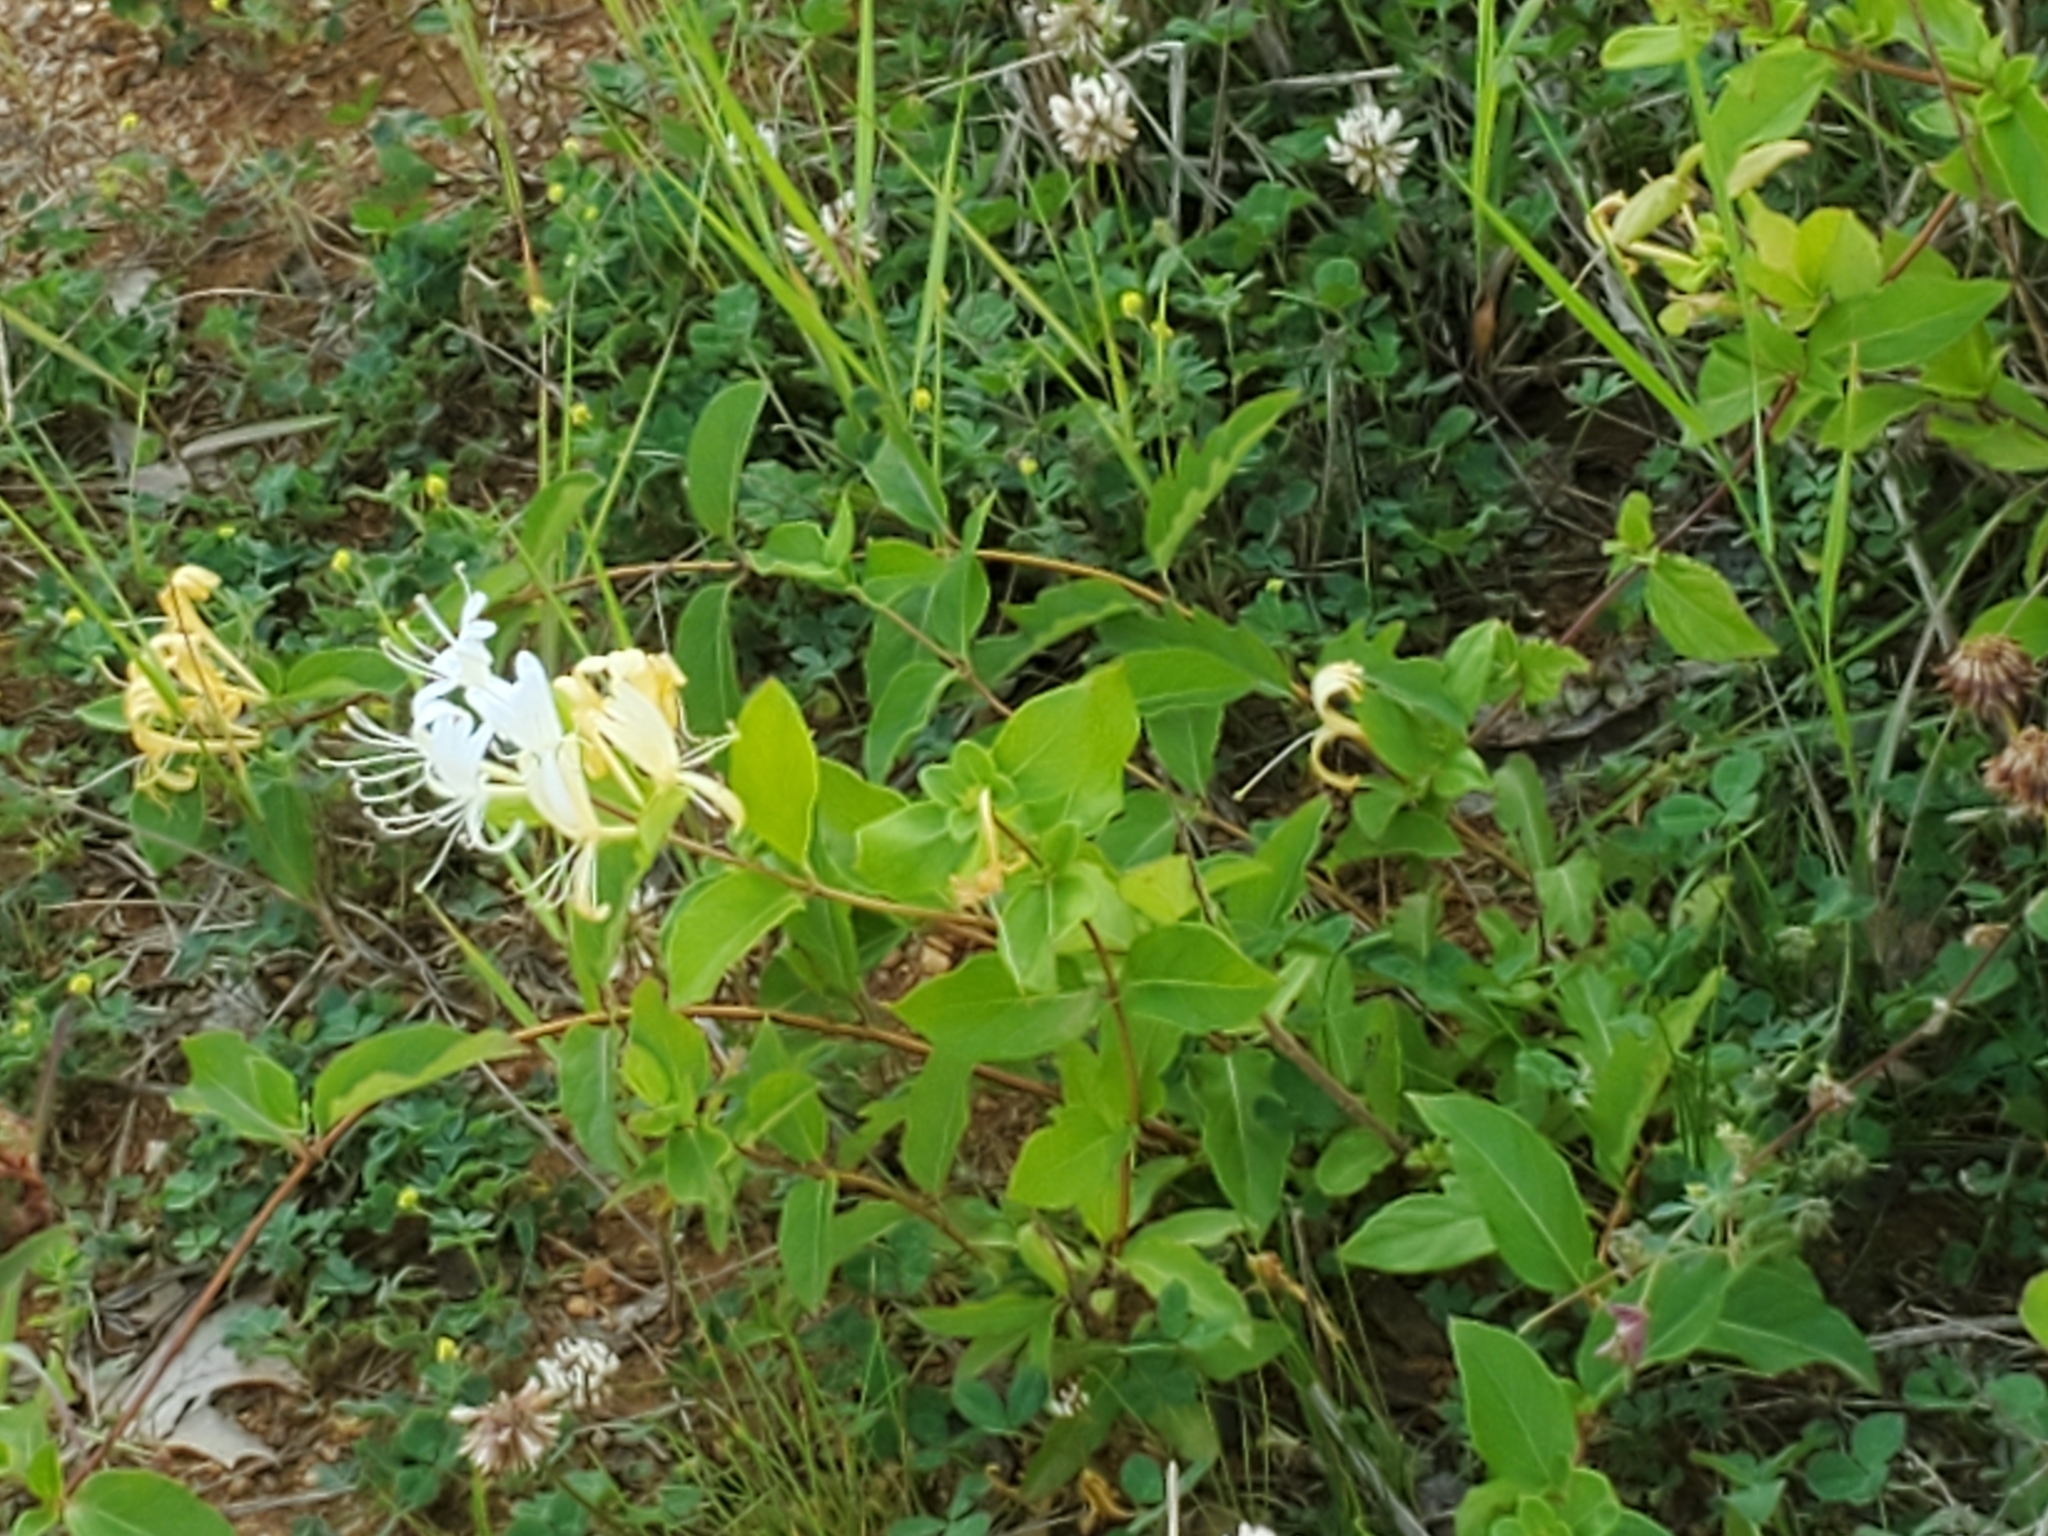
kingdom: Plantae
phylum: Tracheophyta
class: Magnoliopsida
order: Dipsacales
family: Caprifoliaceae
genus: Lonicera
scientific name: Lonicera japonica
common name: Japanese honeysuckle
